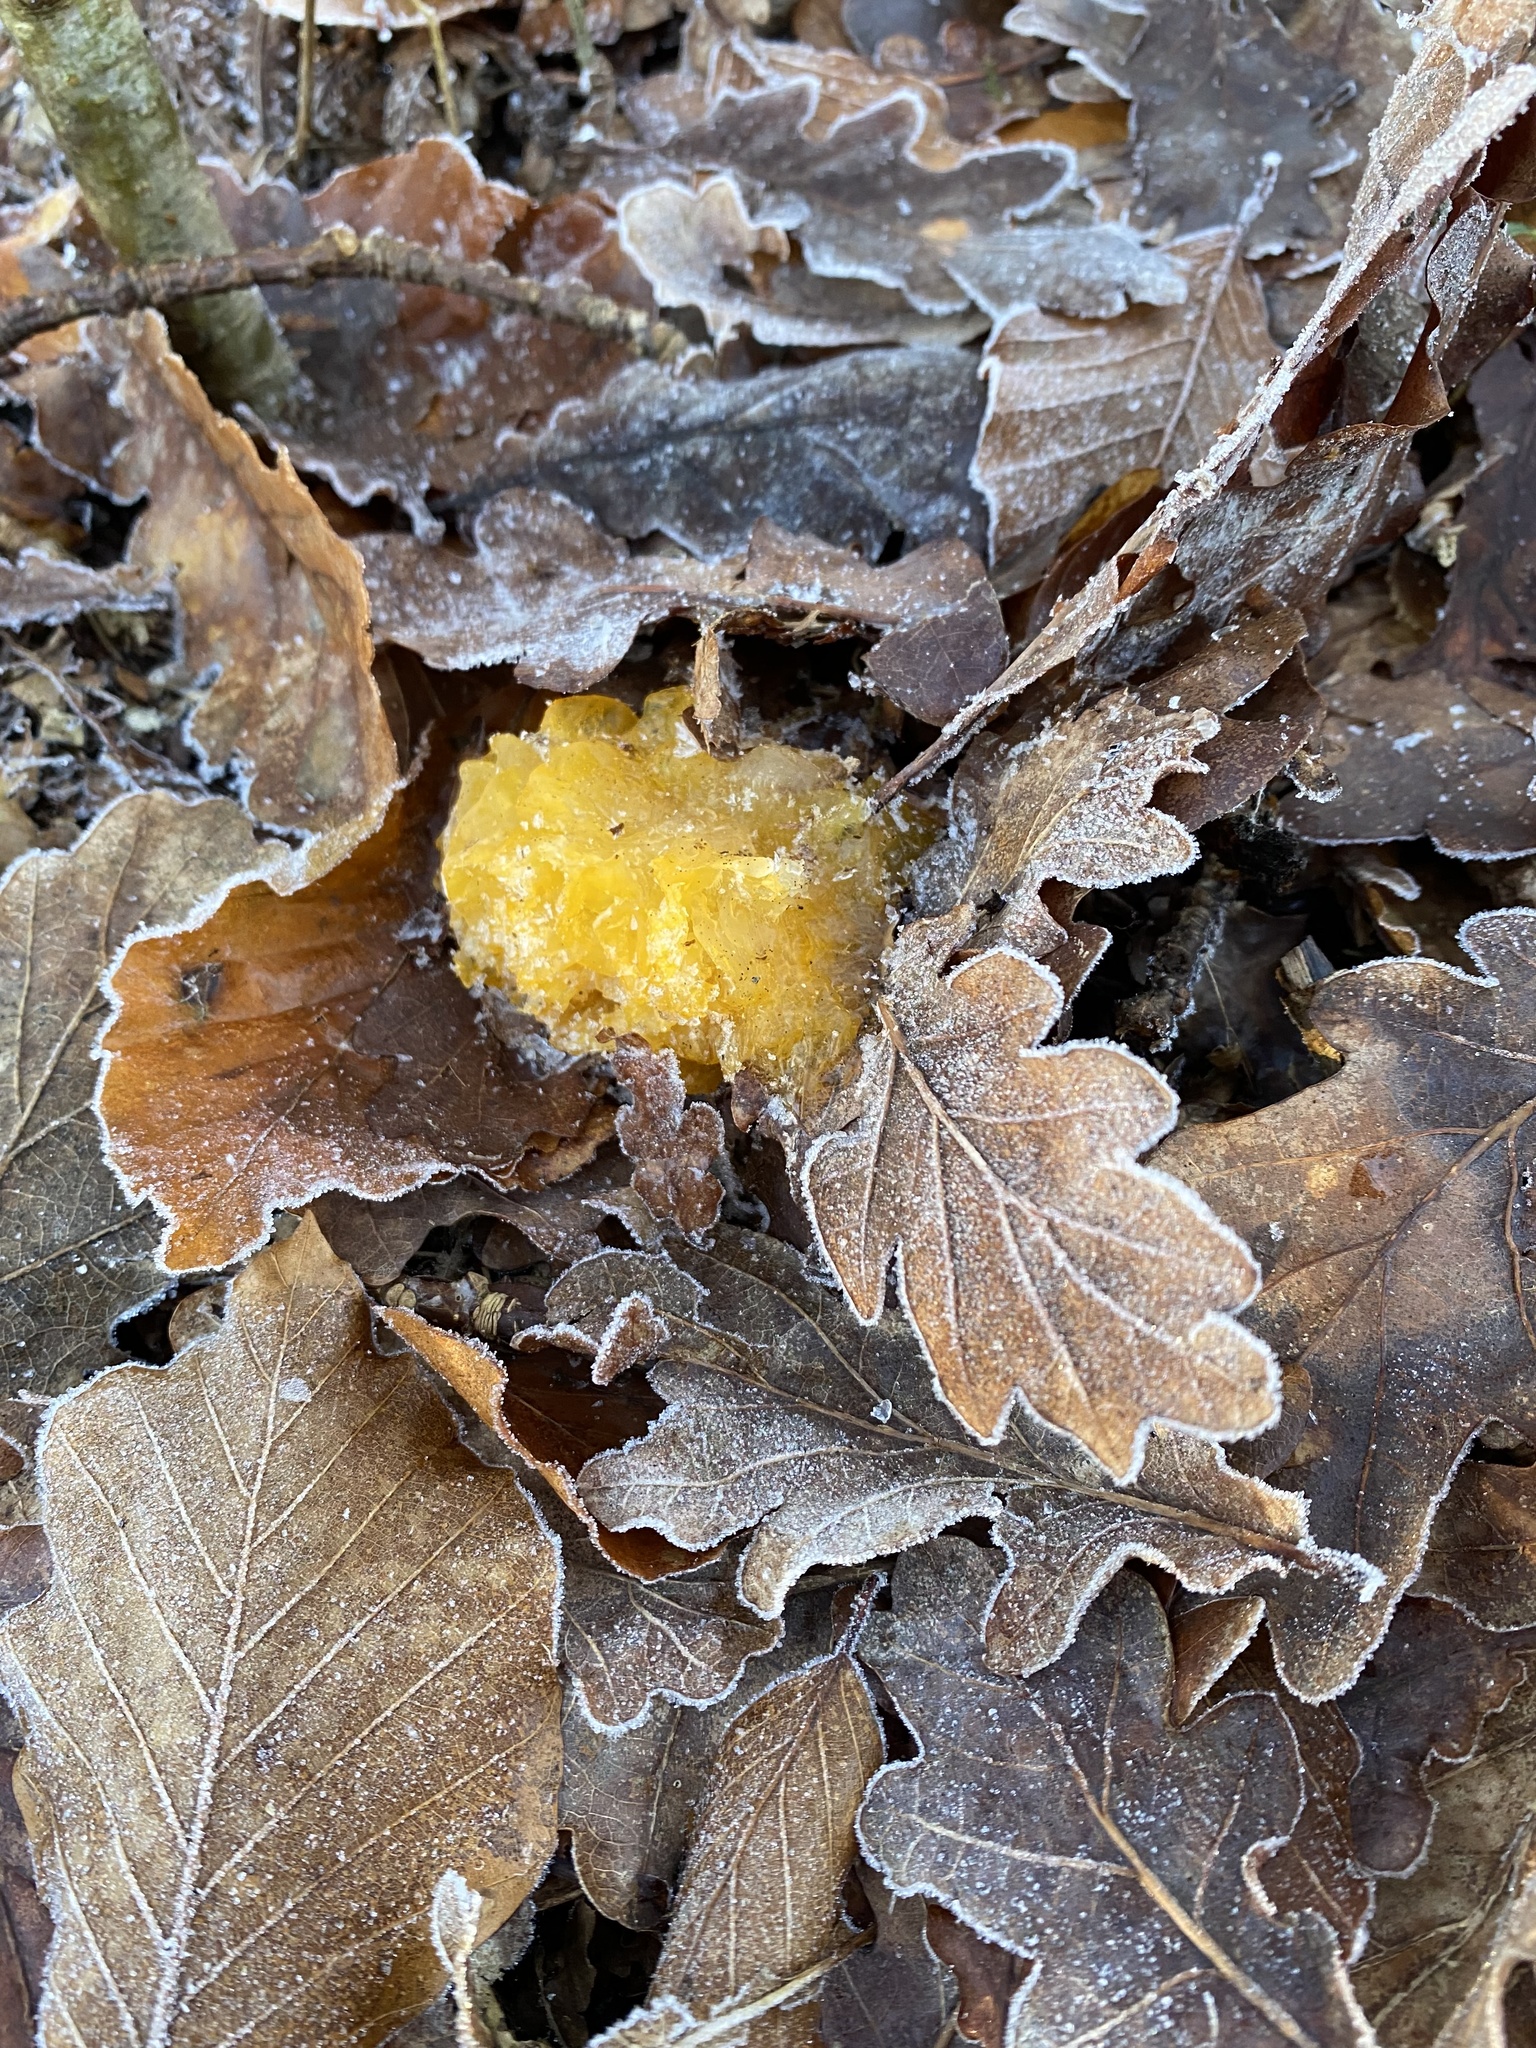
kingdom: Fungi
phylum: Basidiomycota
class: Tremellomycetes
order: Tremellales
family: Tremellaceae
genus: Tremella
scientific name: Tremella mesenterica
